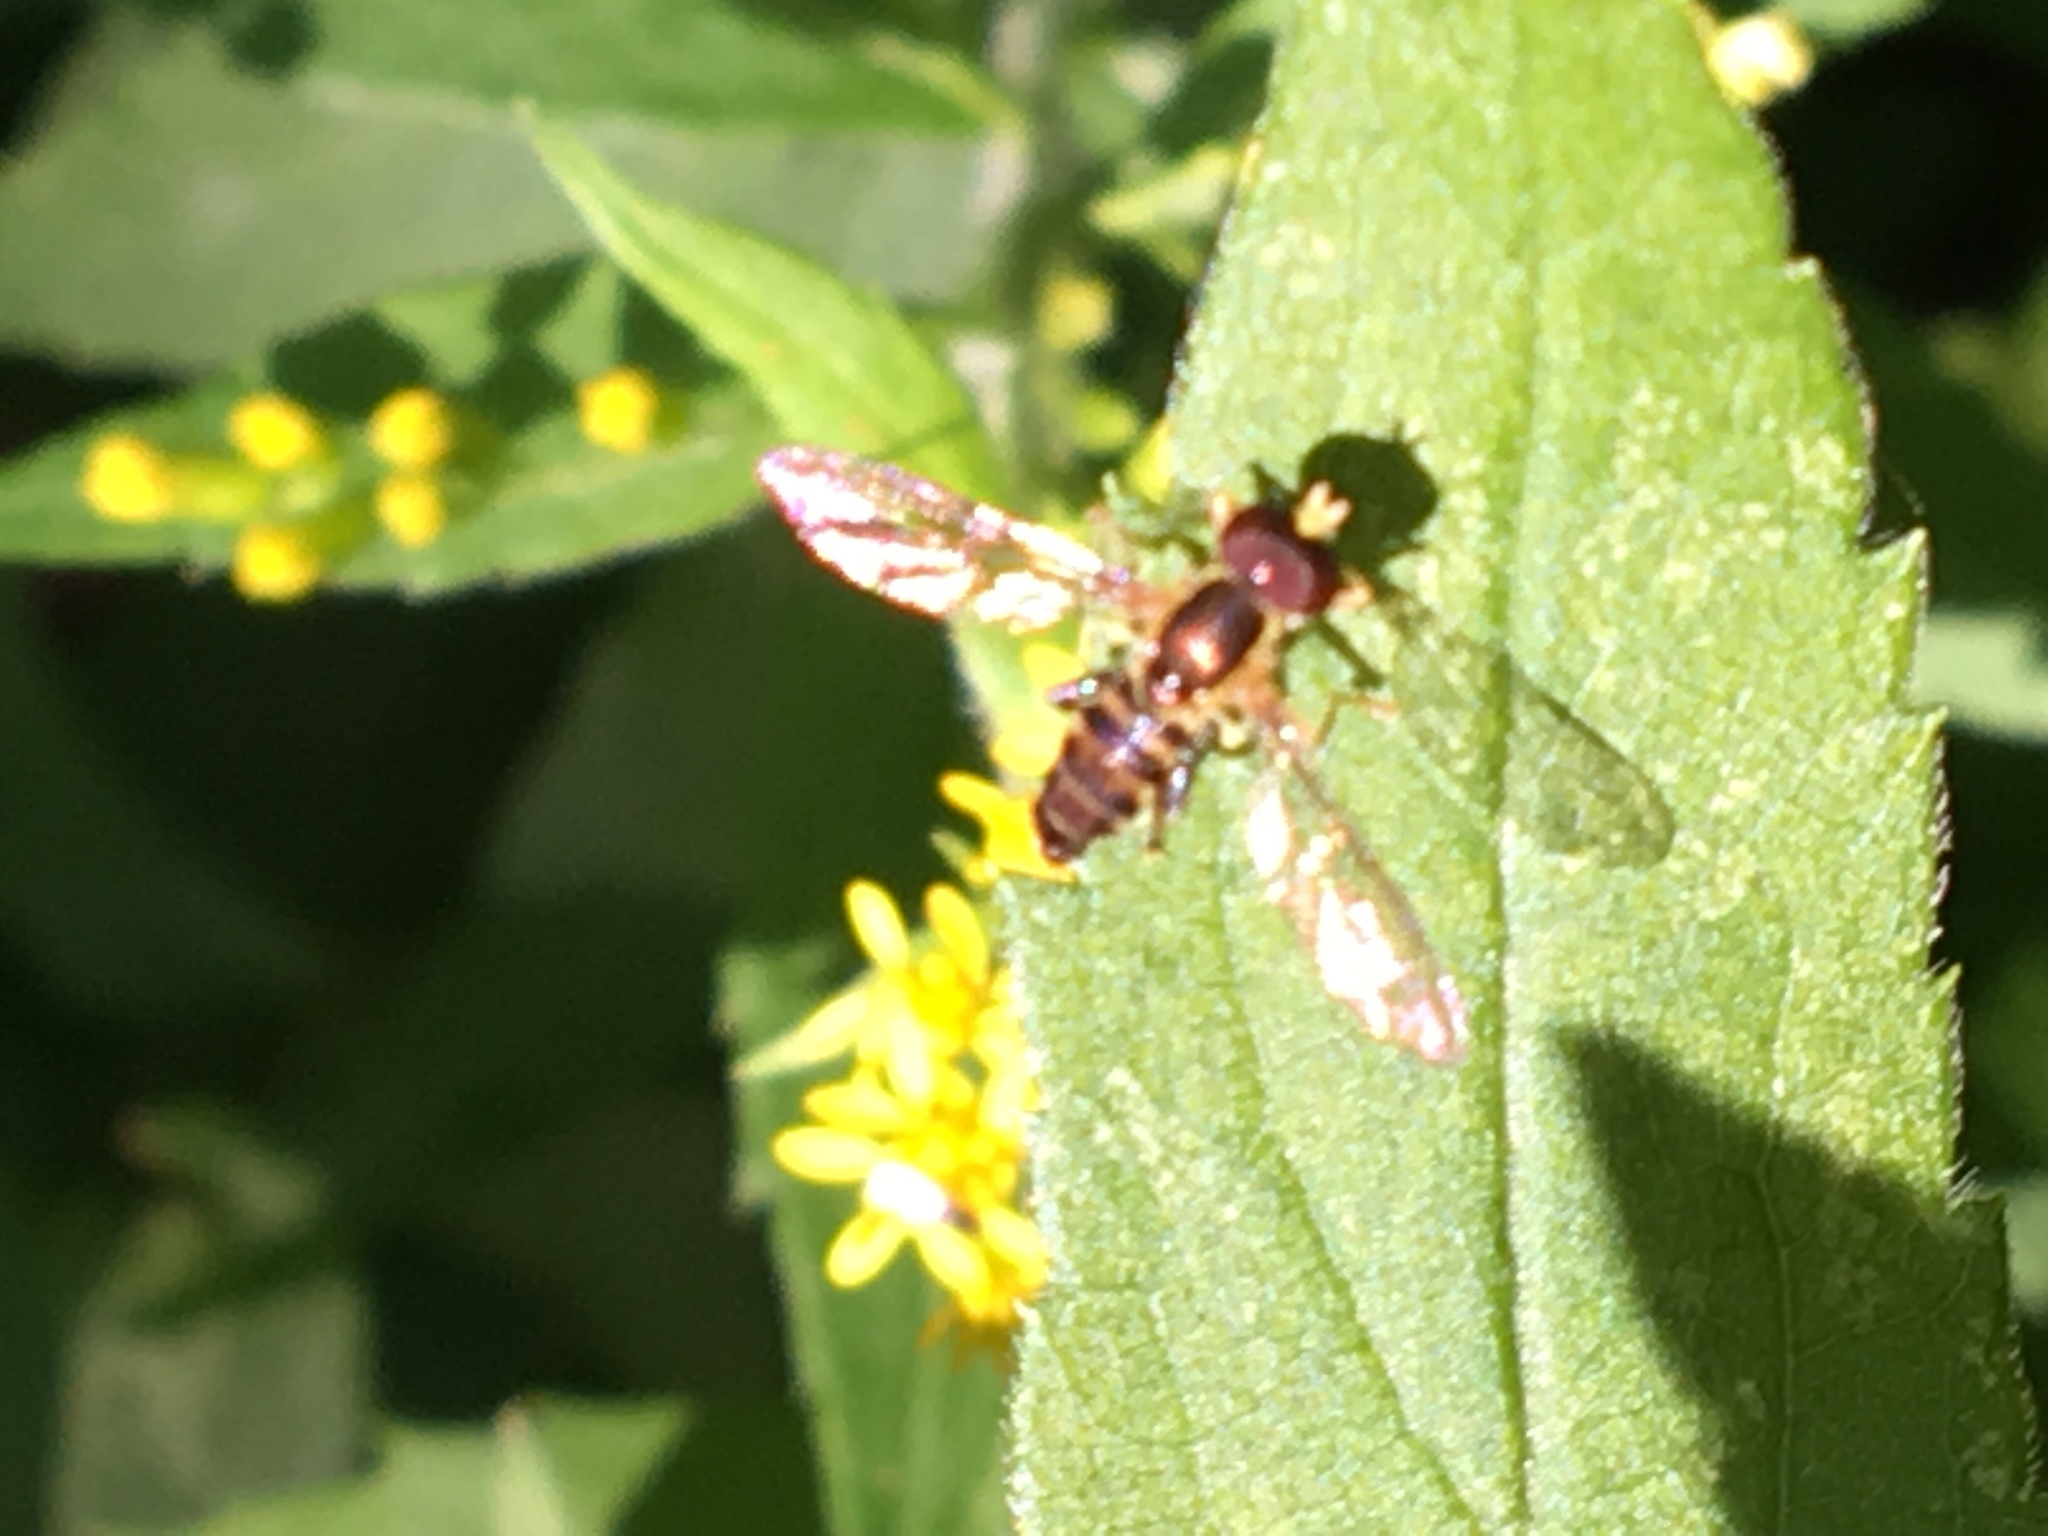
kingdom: Animalia
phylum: Arthropoda
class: Insecta
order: Diptera
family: Syrphidae
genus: Toxomerus
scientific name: Toxomerus geminatus
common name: Eastern calligrapher
